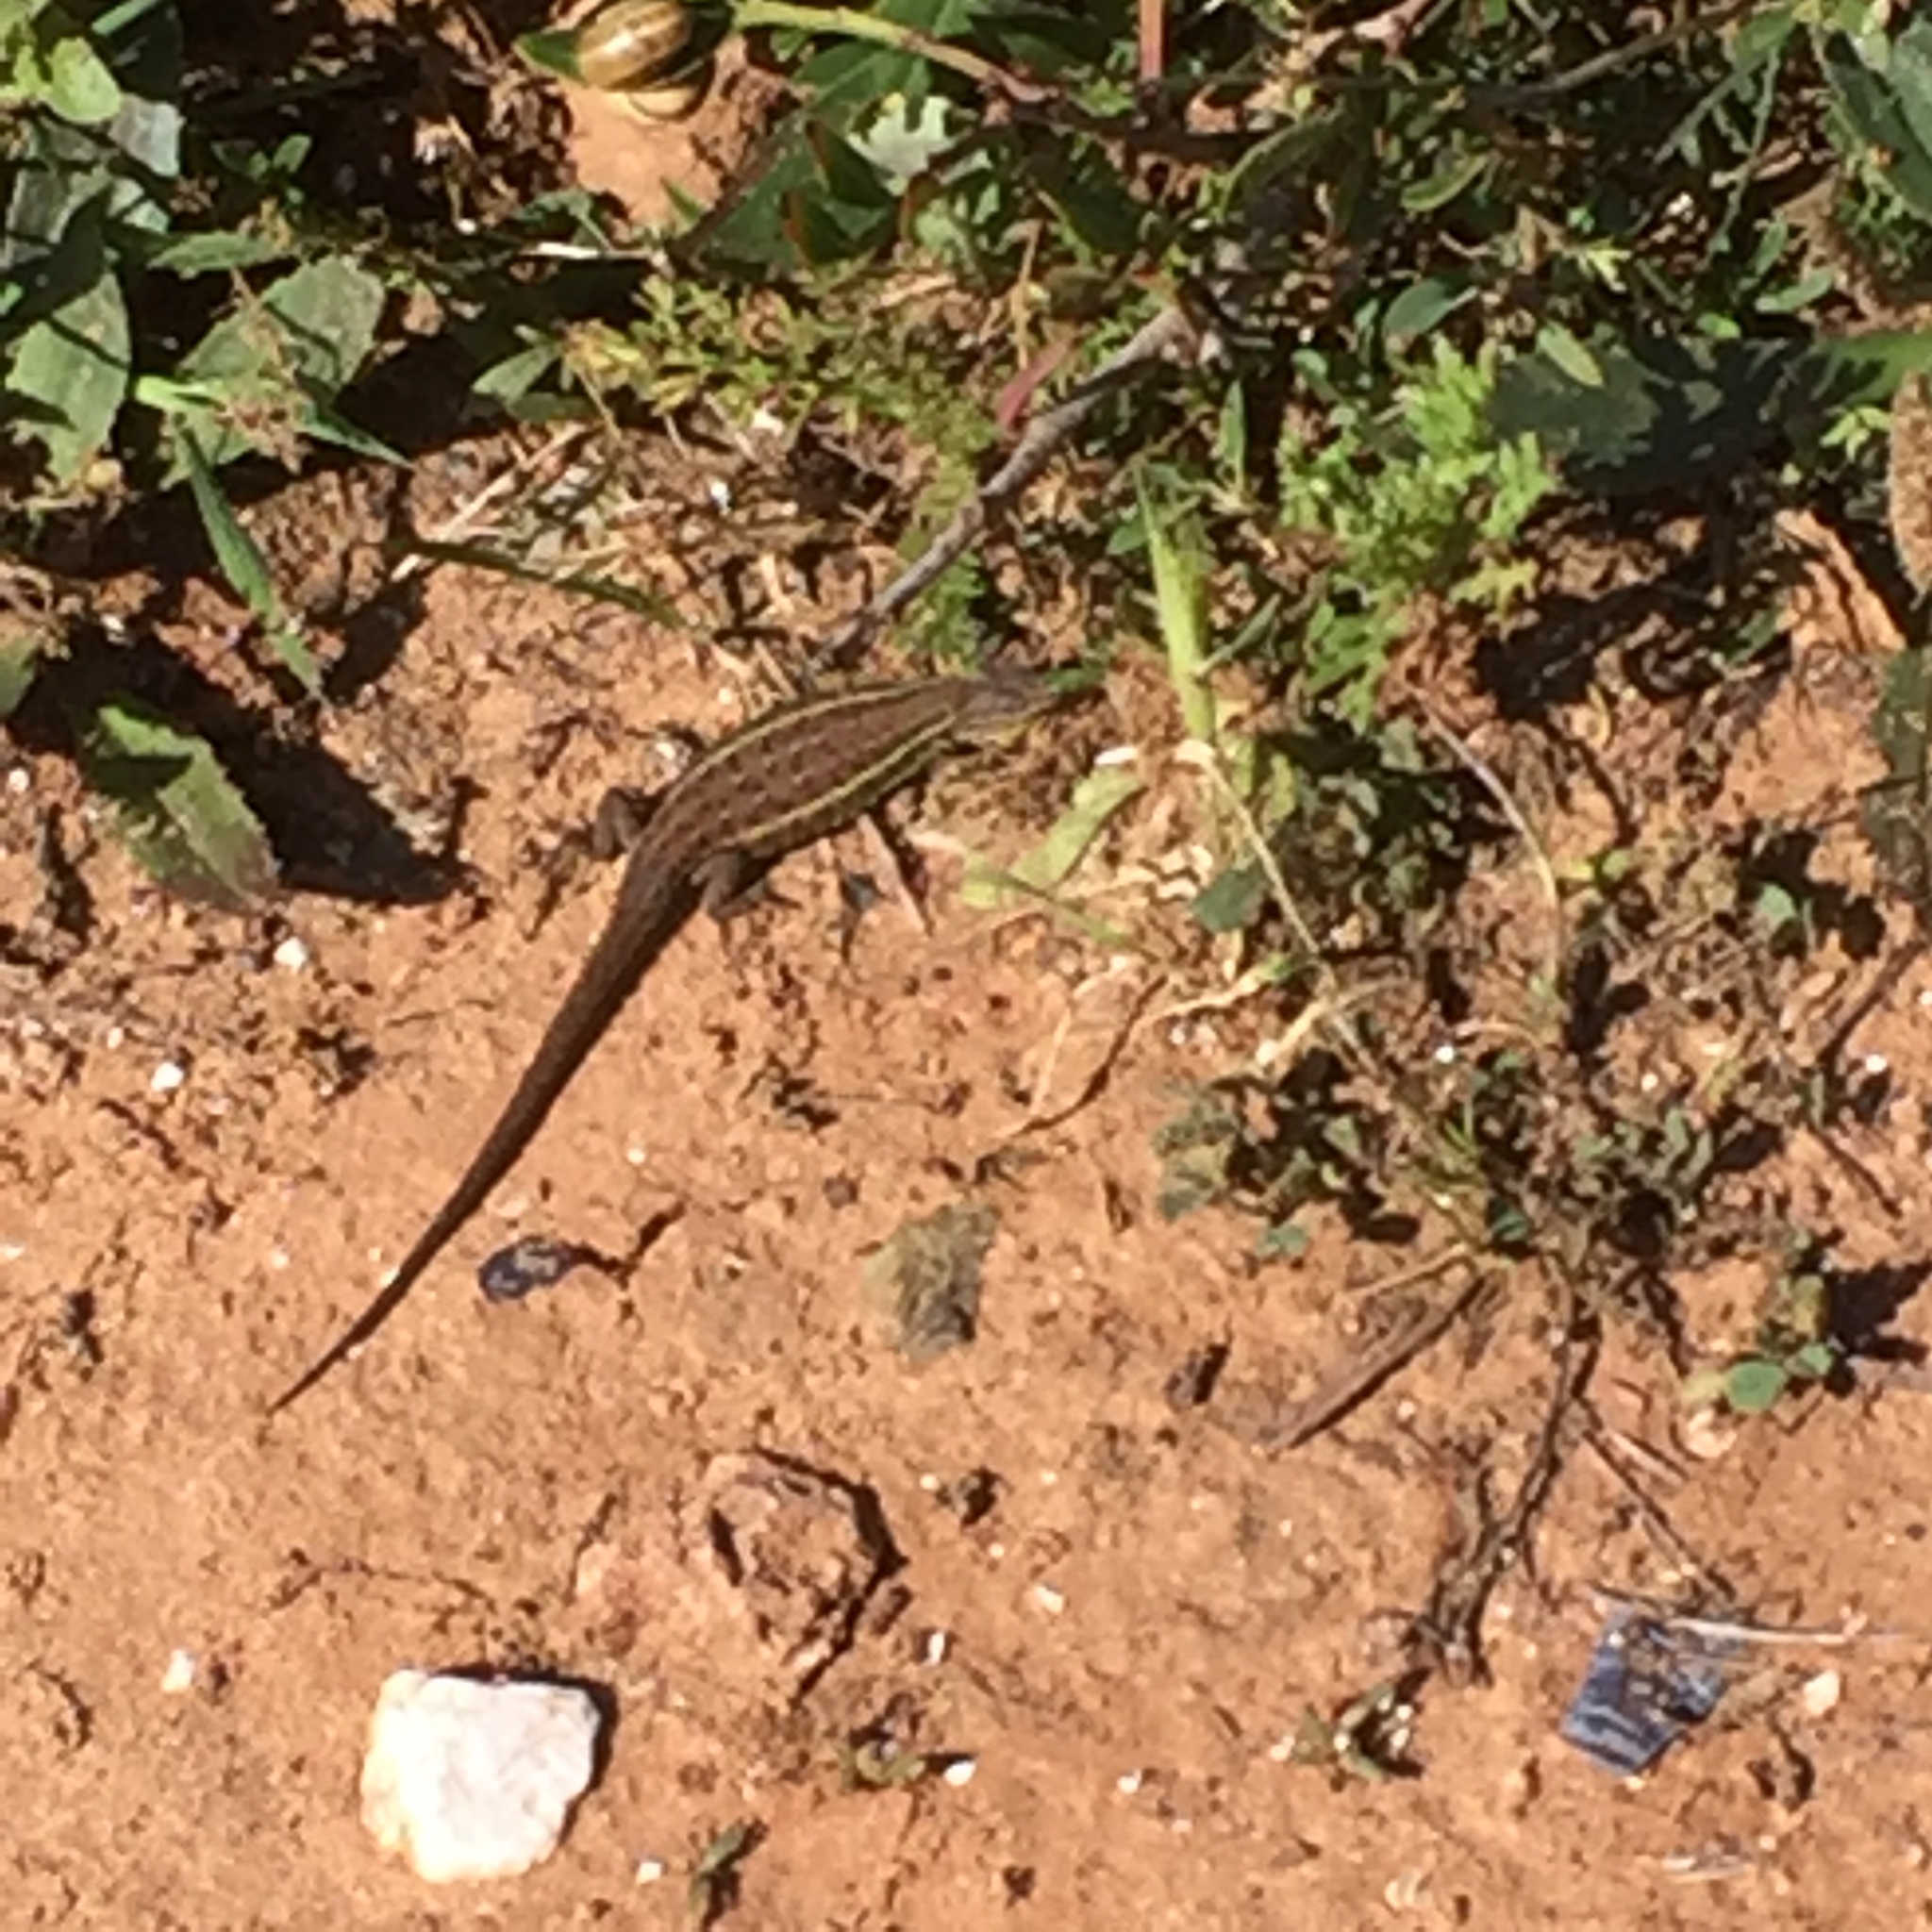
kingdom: Animalia
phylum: Chordata
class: Squamata
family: Lacertidae
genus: Psammodromus
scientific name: Psammodromus occidentalis
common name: Western psammodromus
